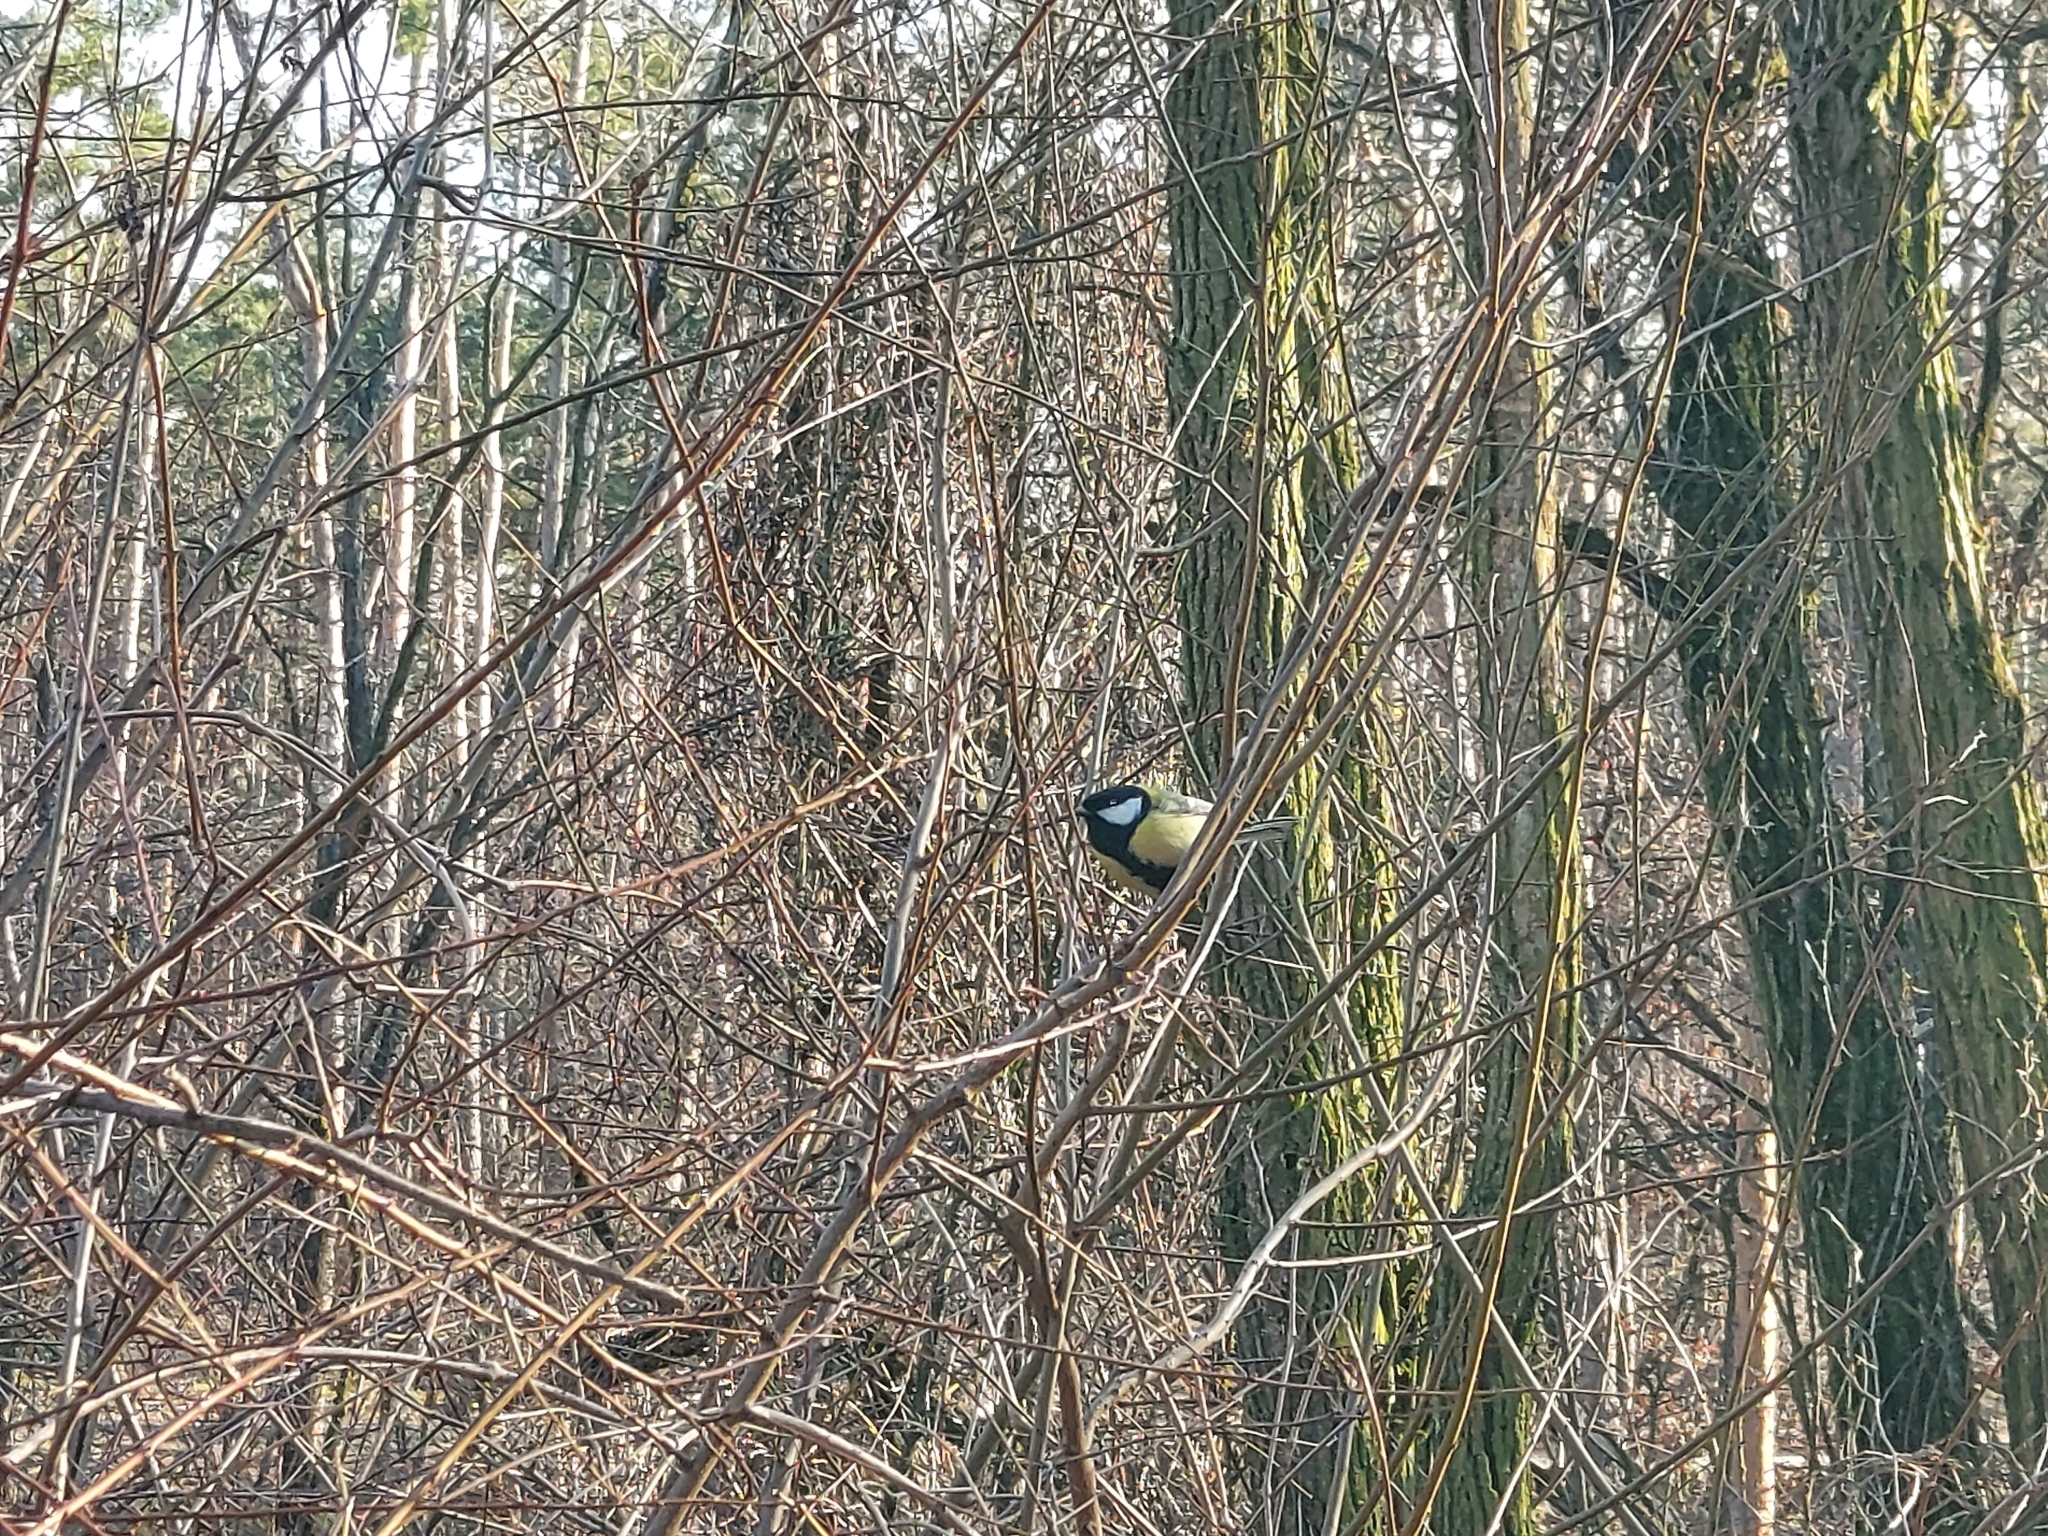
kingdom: Animalia
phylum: Chordata
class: Aves
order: Passeriformes
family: Paridae
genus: Parus
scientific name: Parus major
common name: Great tit
